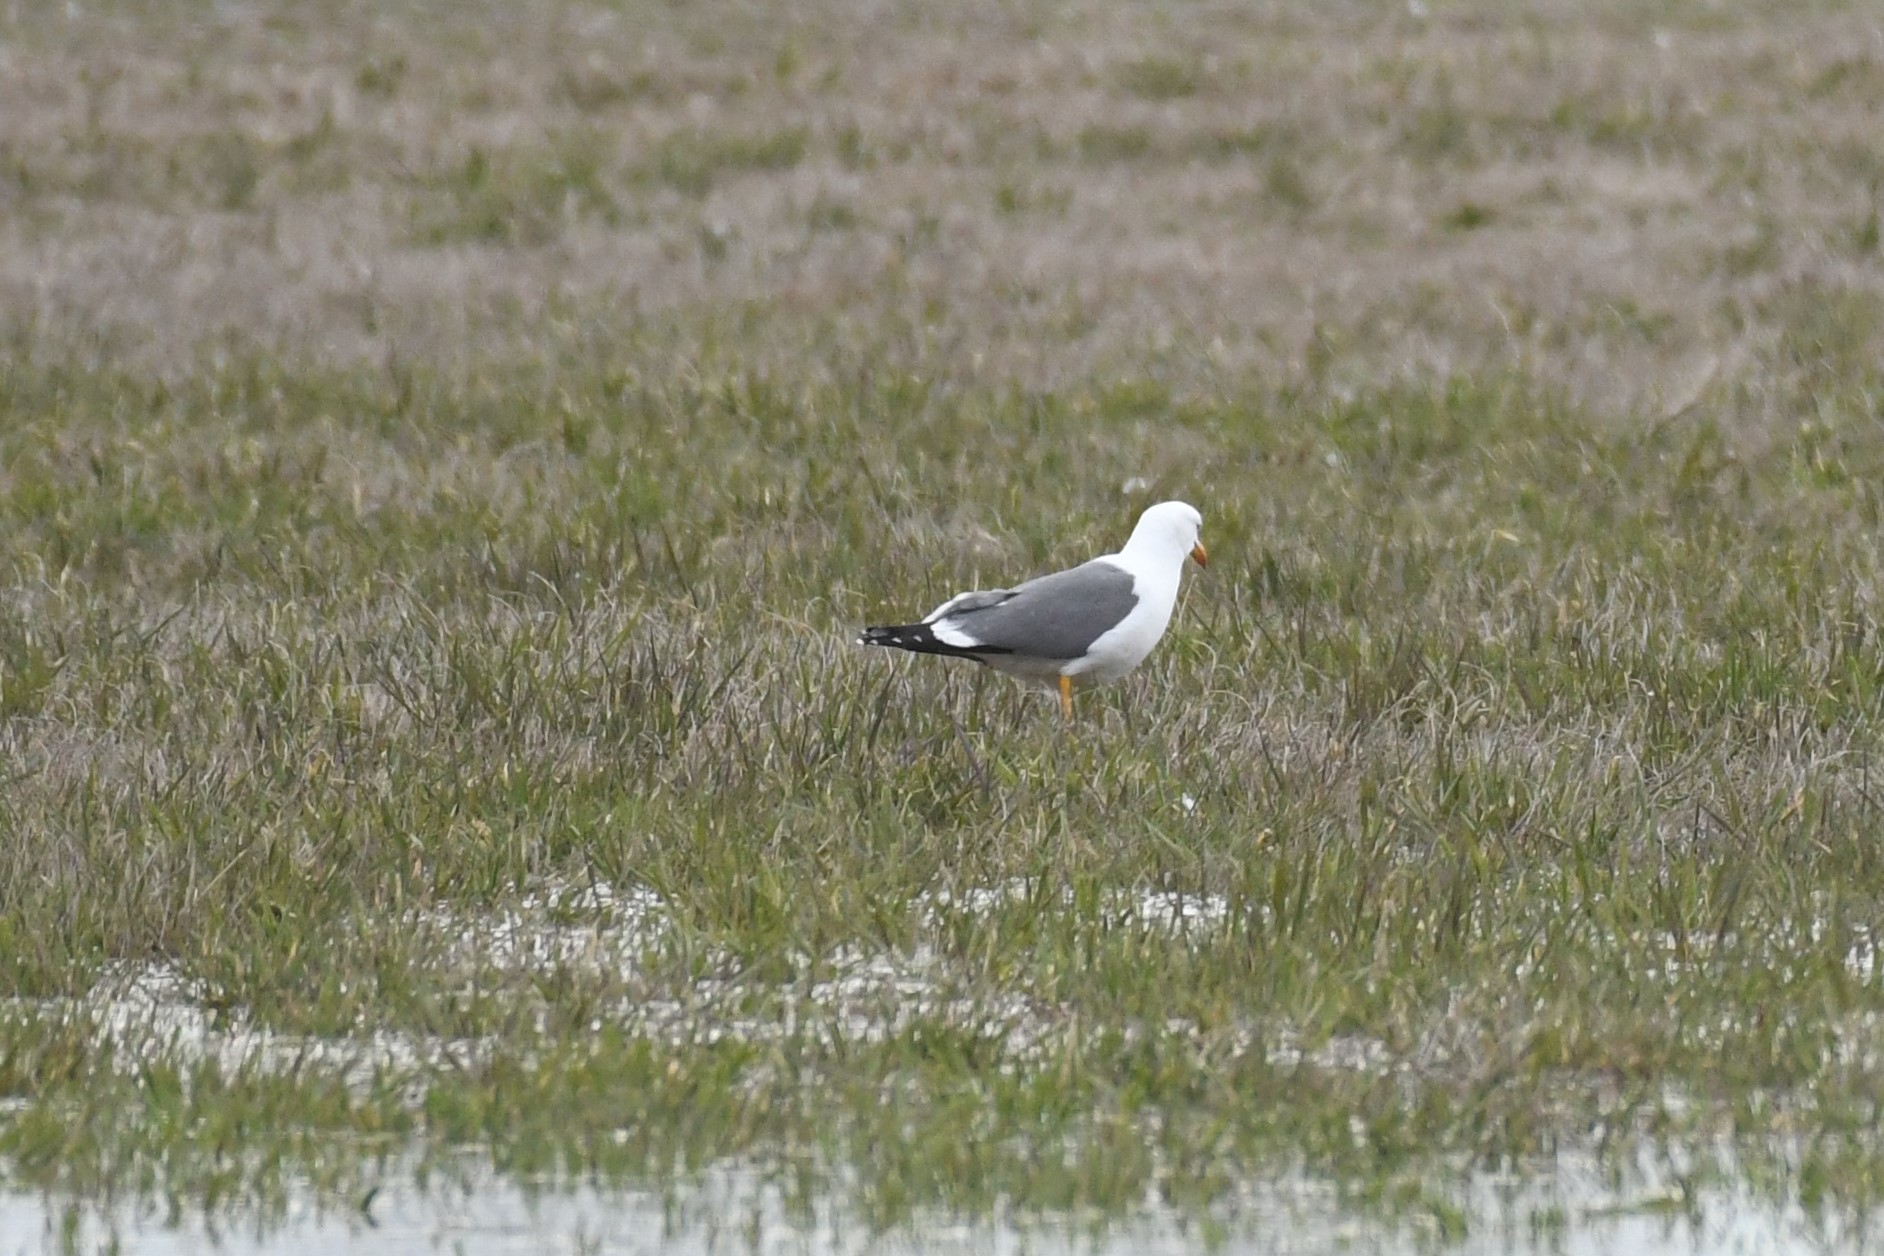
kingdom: Animalia
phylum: Chordata
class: Aves
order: Charadriiformes
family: Laridae
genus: Larus
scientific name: Larus fuscus
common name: Lesser black-backed gull
